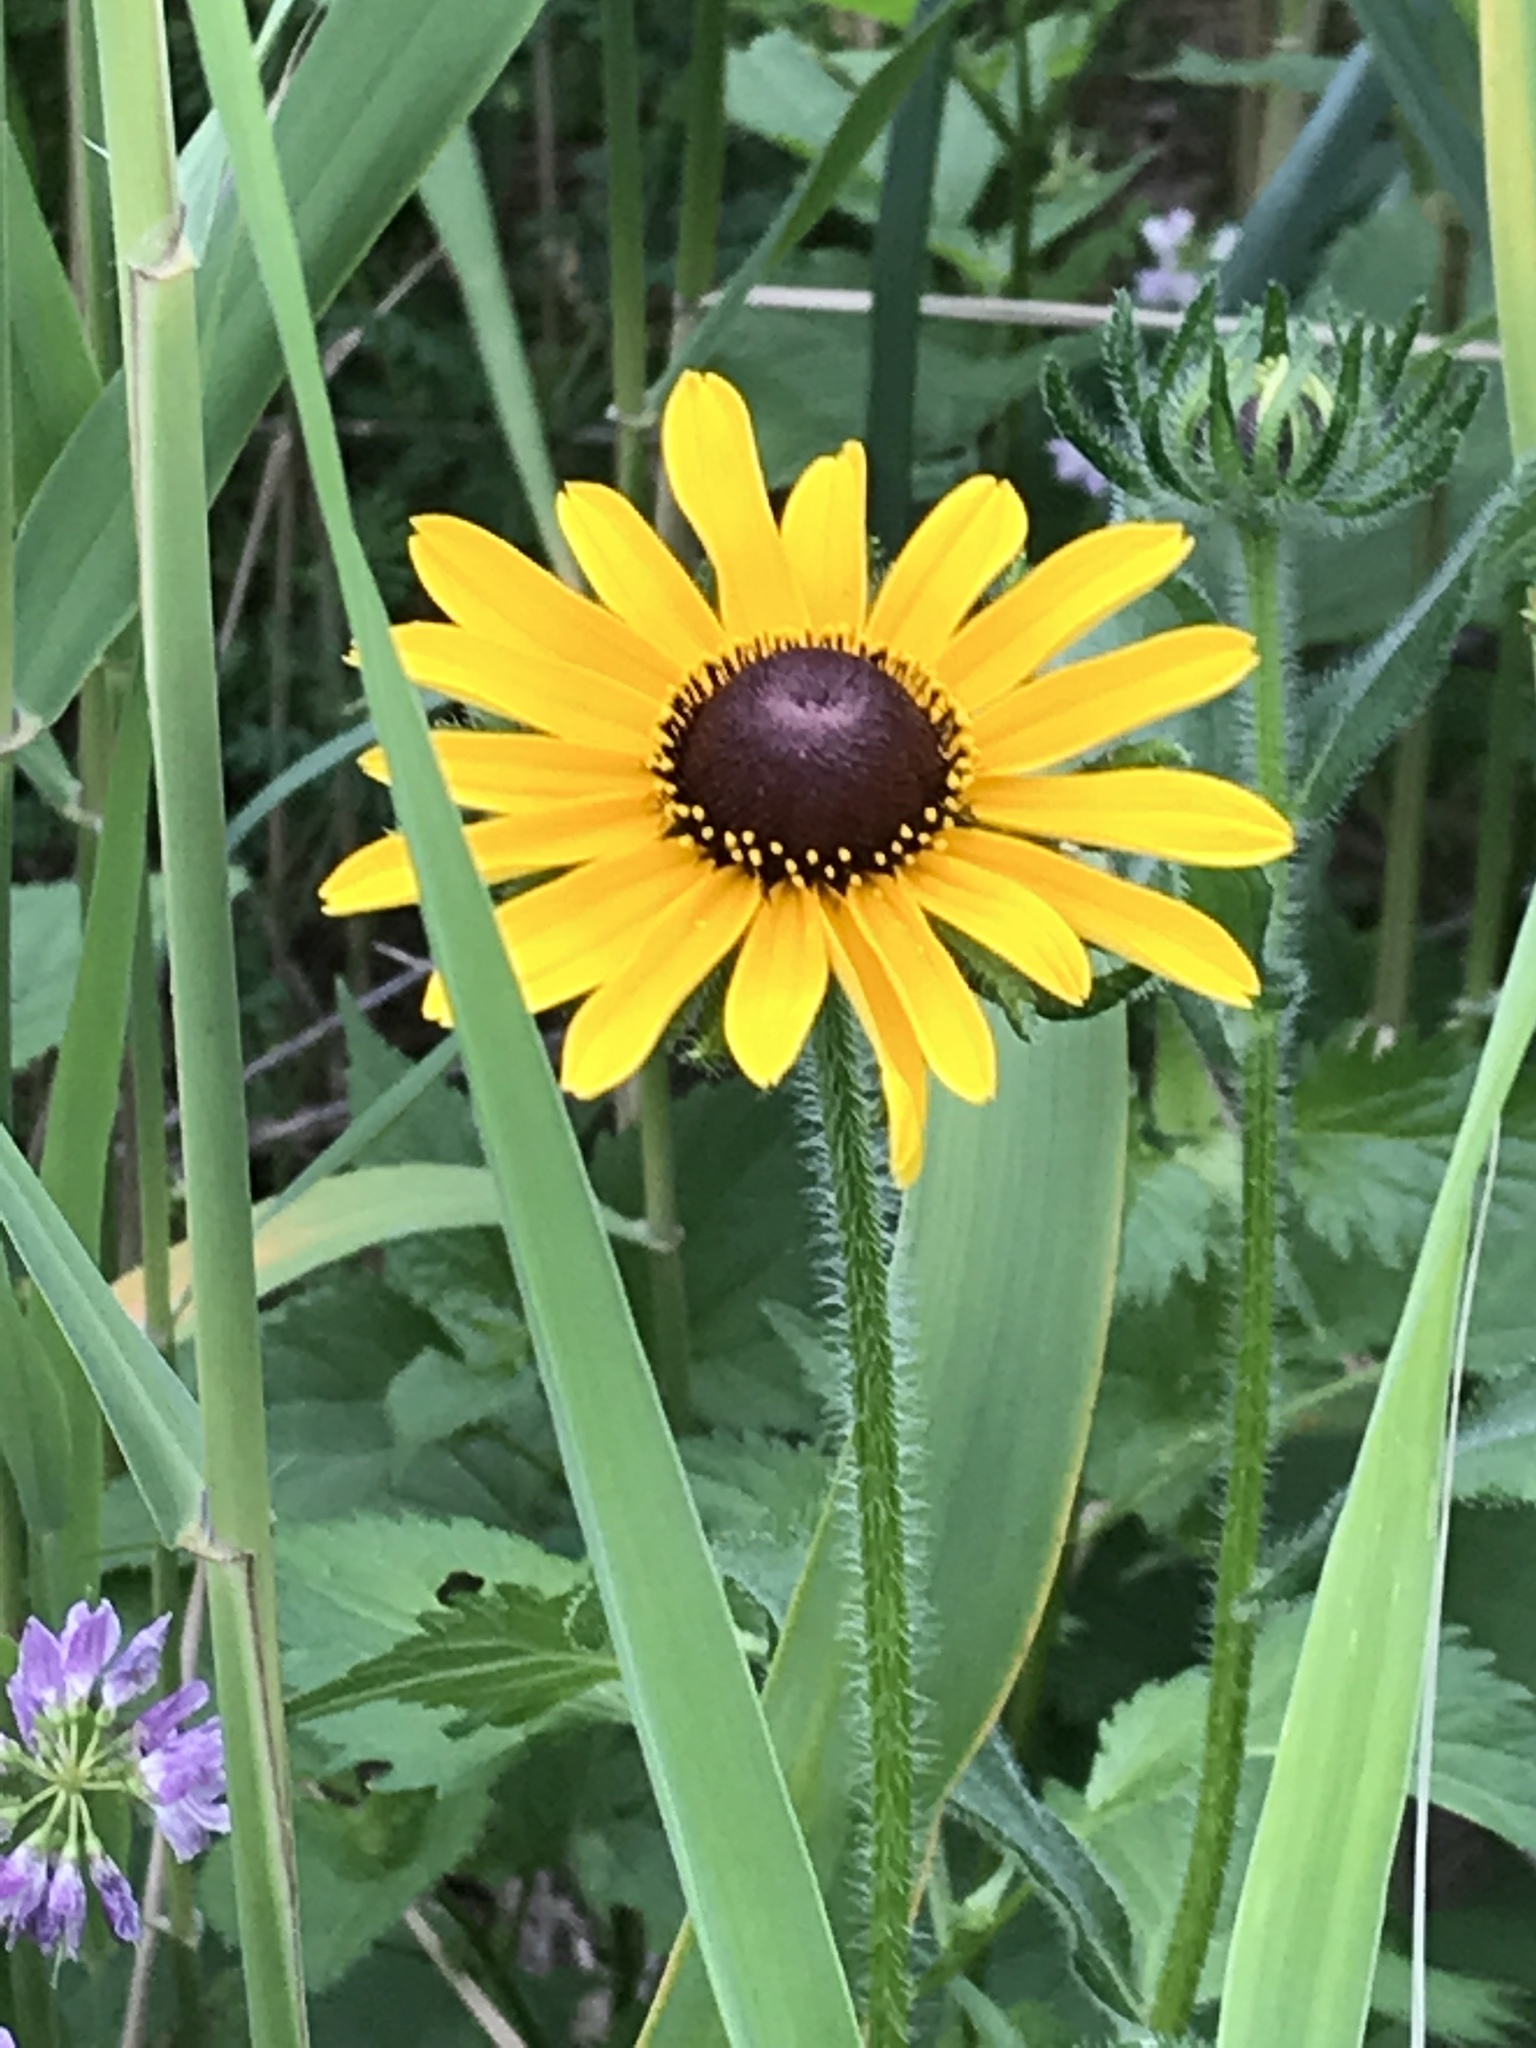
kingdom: Plantae
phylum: Tracheophyta
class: Magnoliopsida
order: Asterales
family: Asteraceae
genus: Rudbeckia
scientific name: Rudbeckia hirta
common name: Black-eyed-susan
